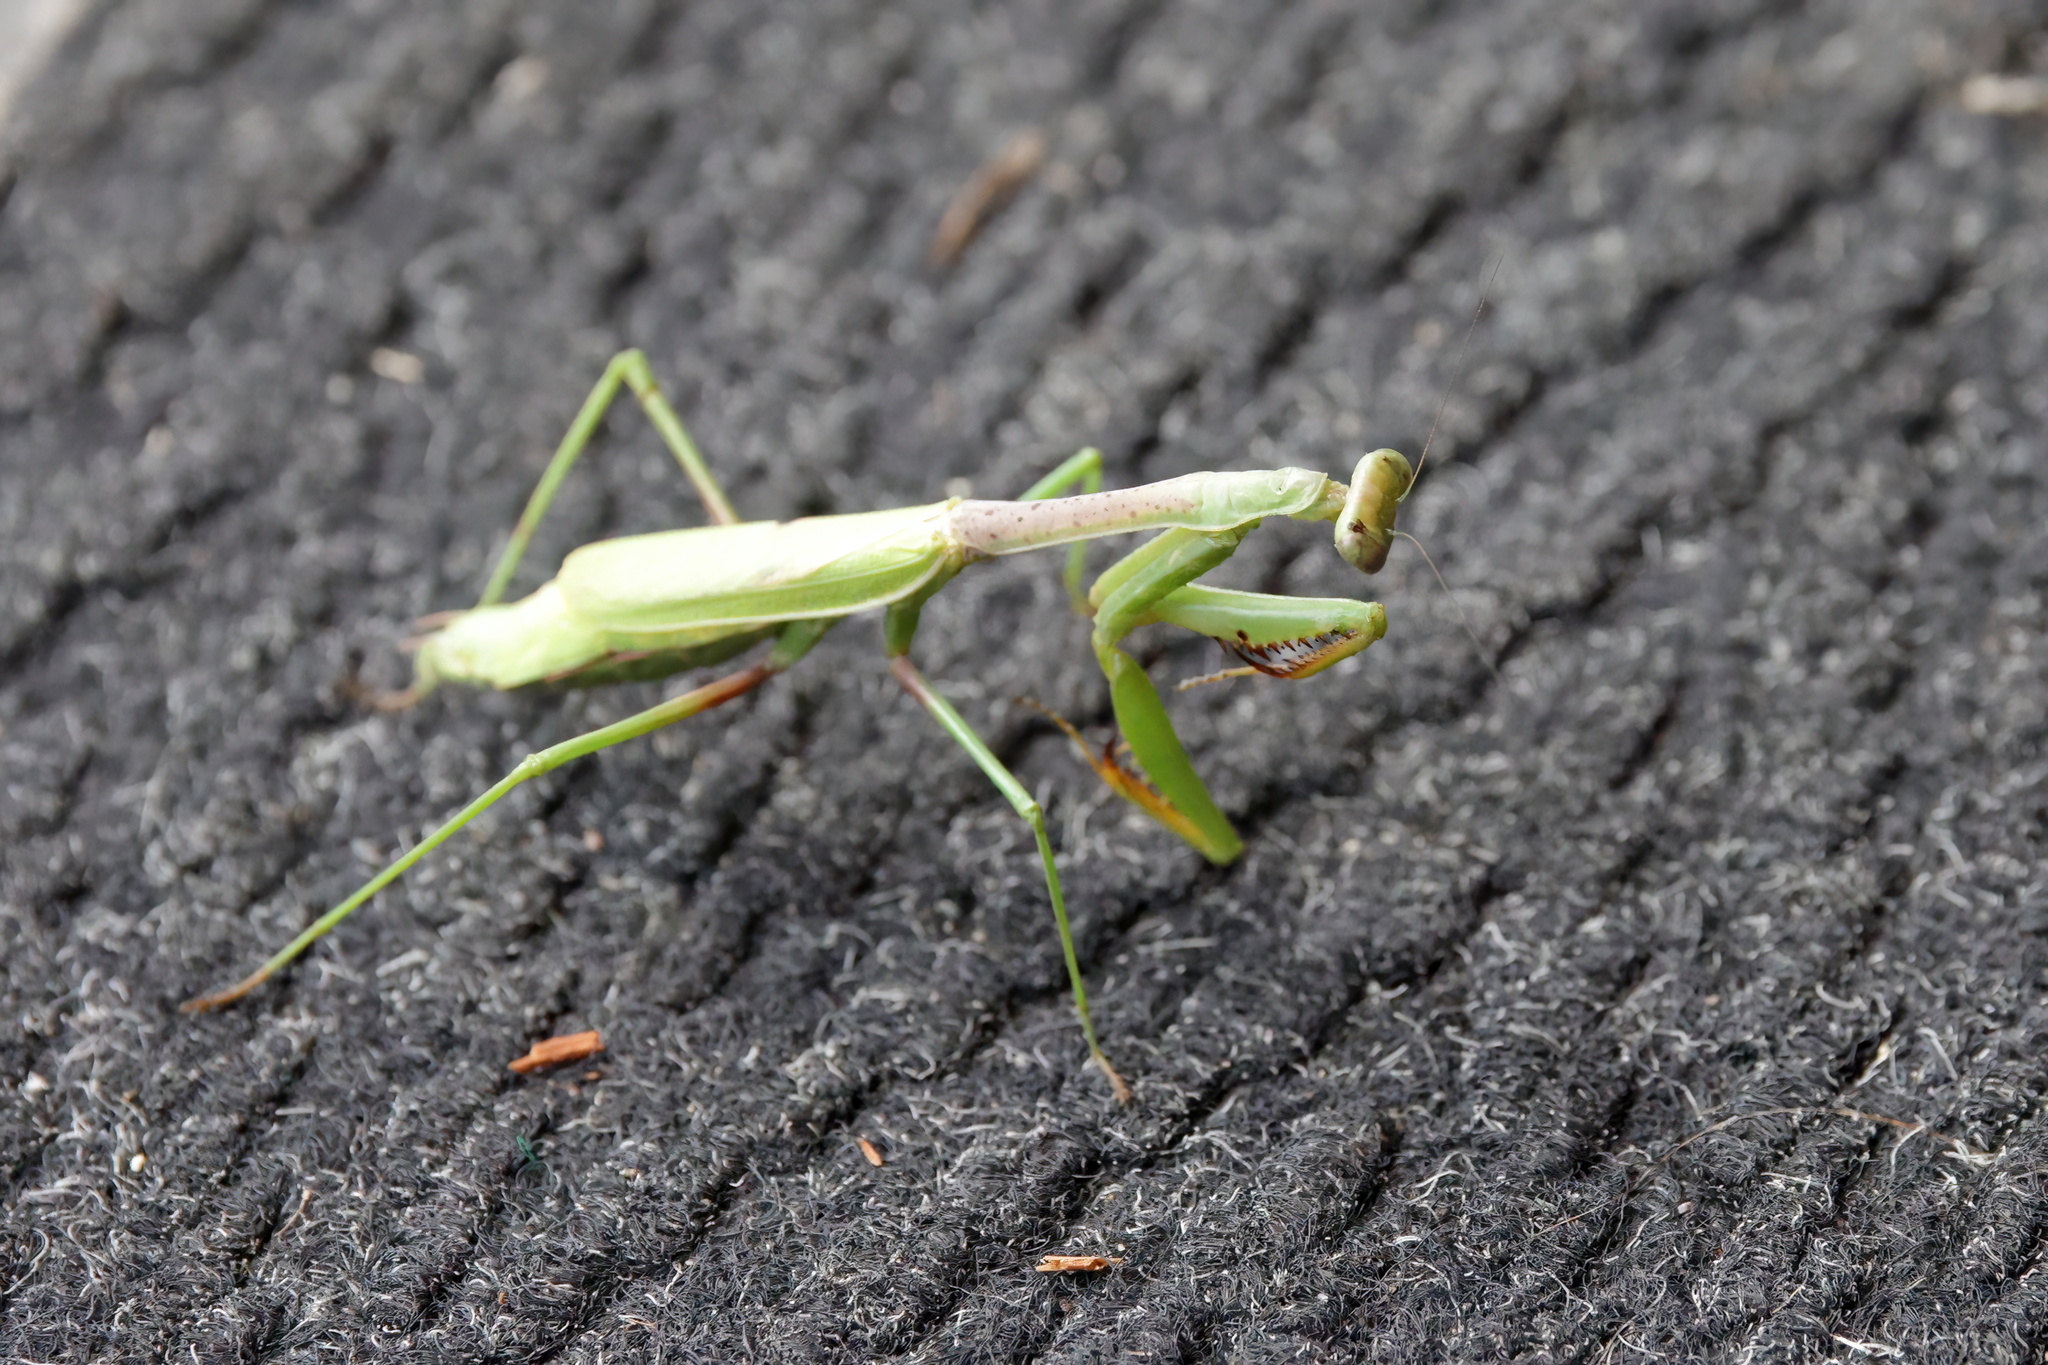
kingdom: Animalia
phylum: Arthropoda
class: Insecta
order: Mantodea
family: Mantidae
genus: Stagmomantis
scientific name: Stagmomantis carolina
